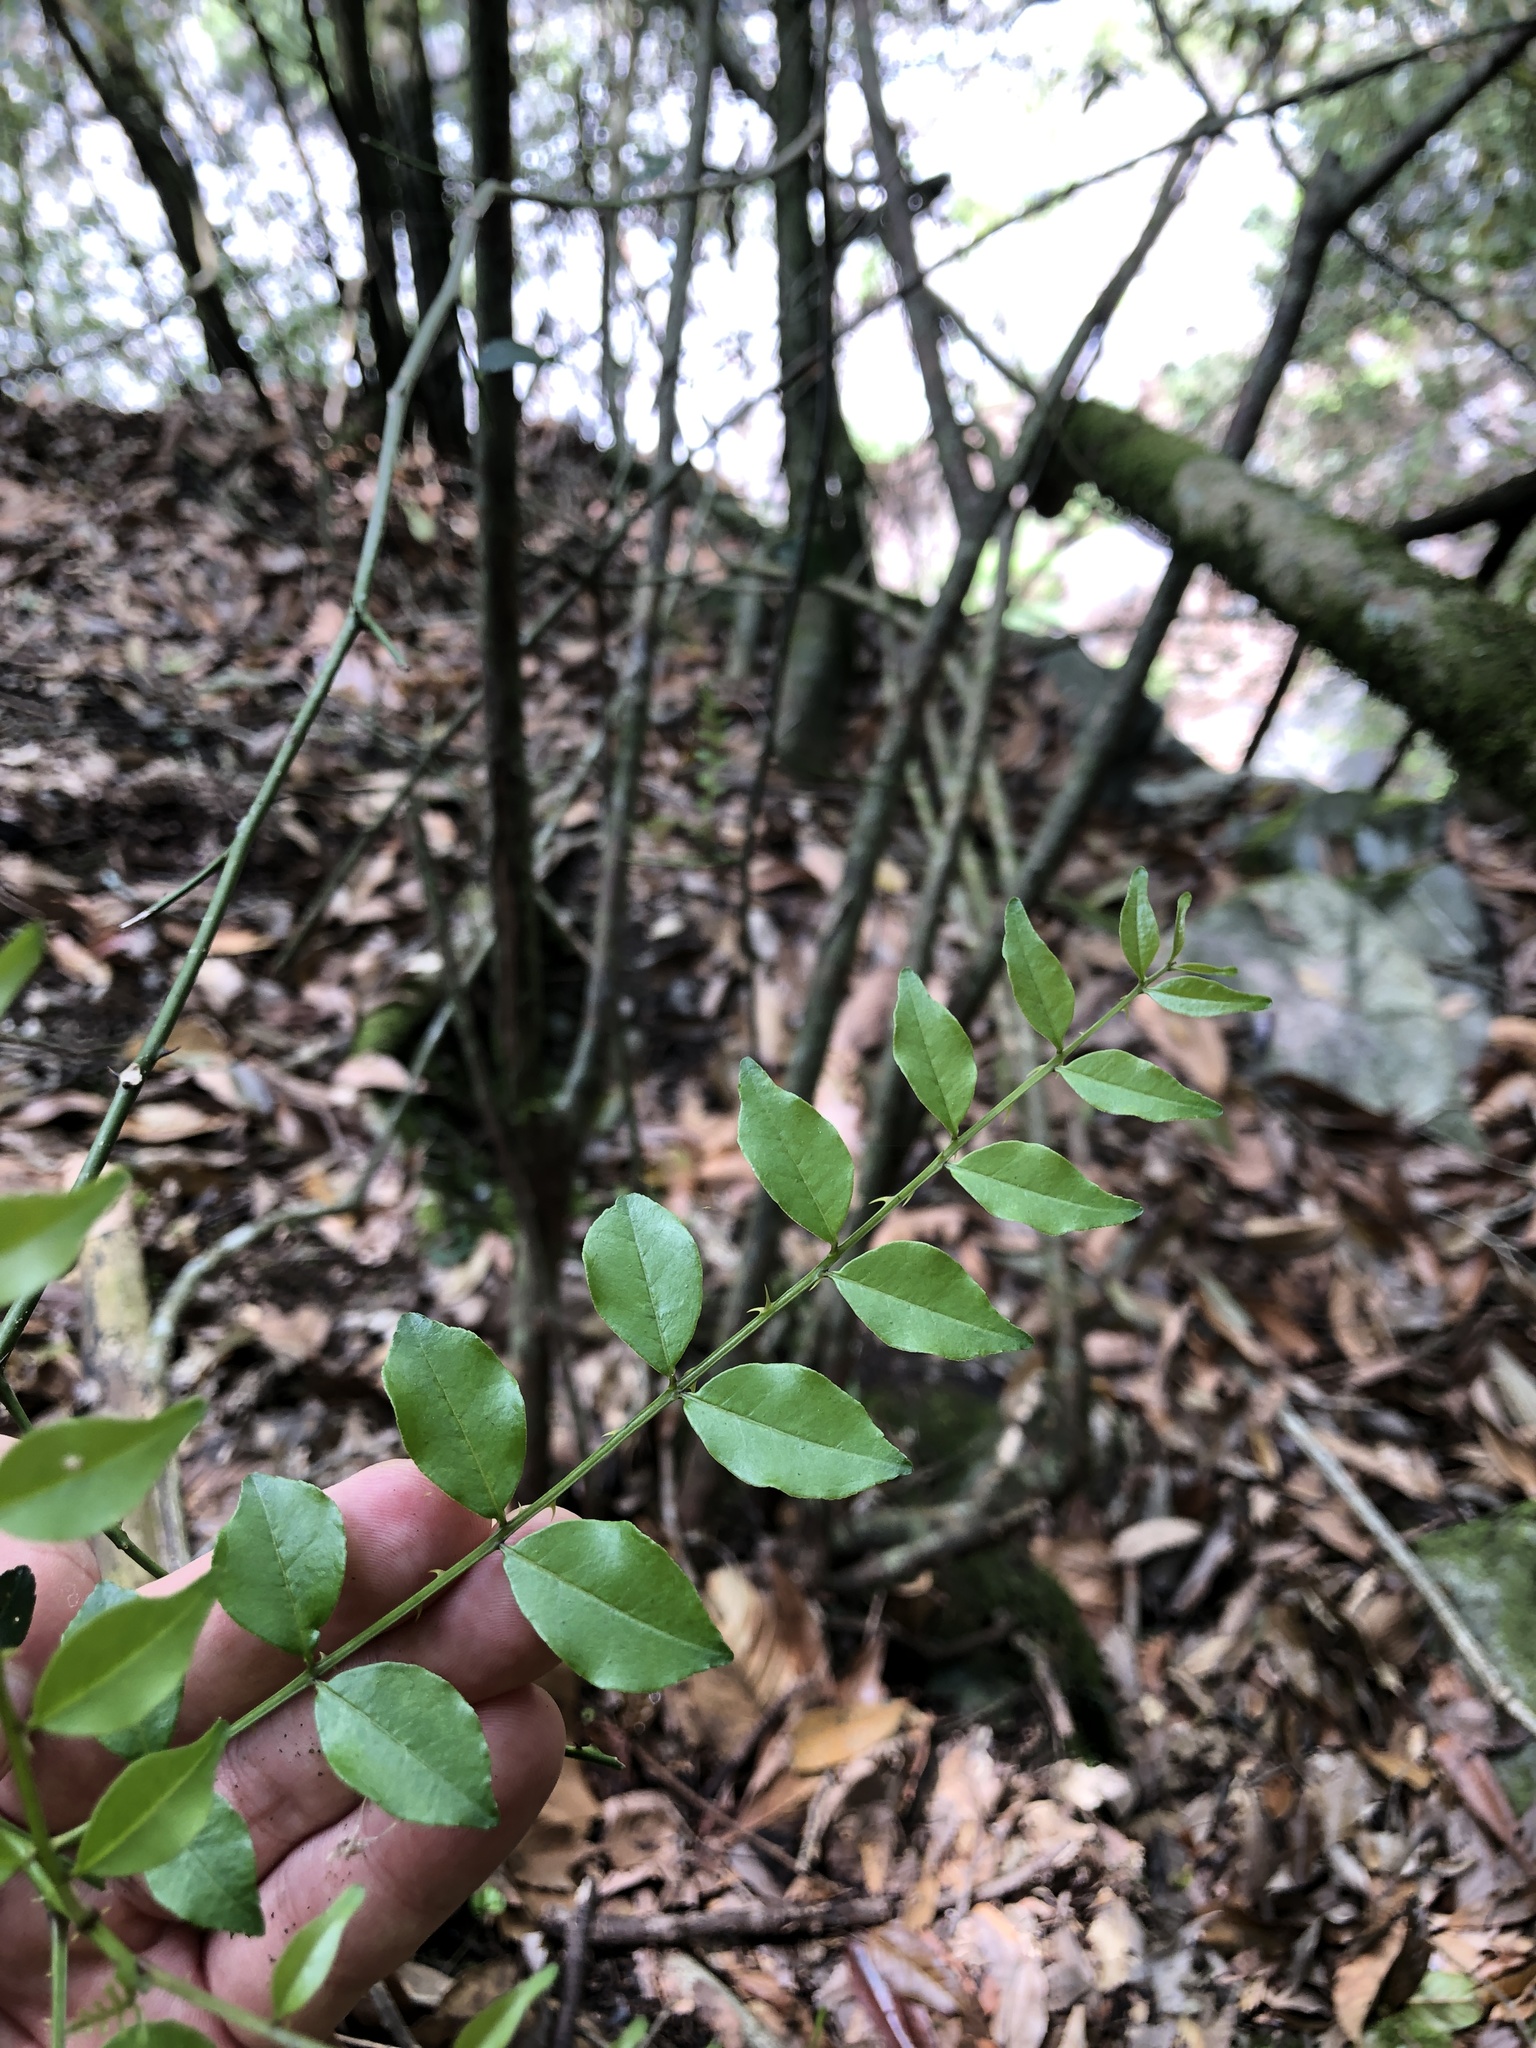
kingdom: Plantae
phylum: Tracheophyta
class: Magnoliopsida
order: Sapindales
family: Rutaceae
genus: Zanthoxylum
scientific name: Zanthoxylum scandens
